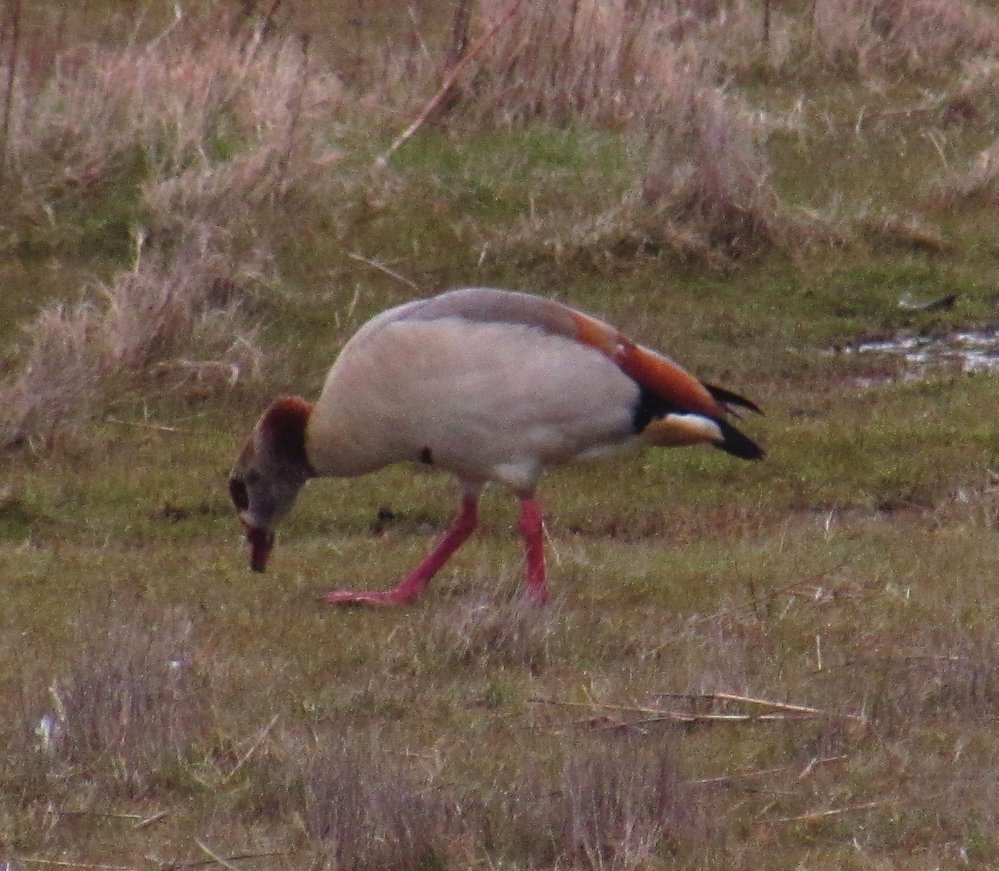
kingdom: Animalia
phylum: Chordata
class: Aves
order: Anseriformes
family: Anatidae
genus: Alopochen
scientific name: Alopochen aegyptiaca
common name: Egyptian goose
